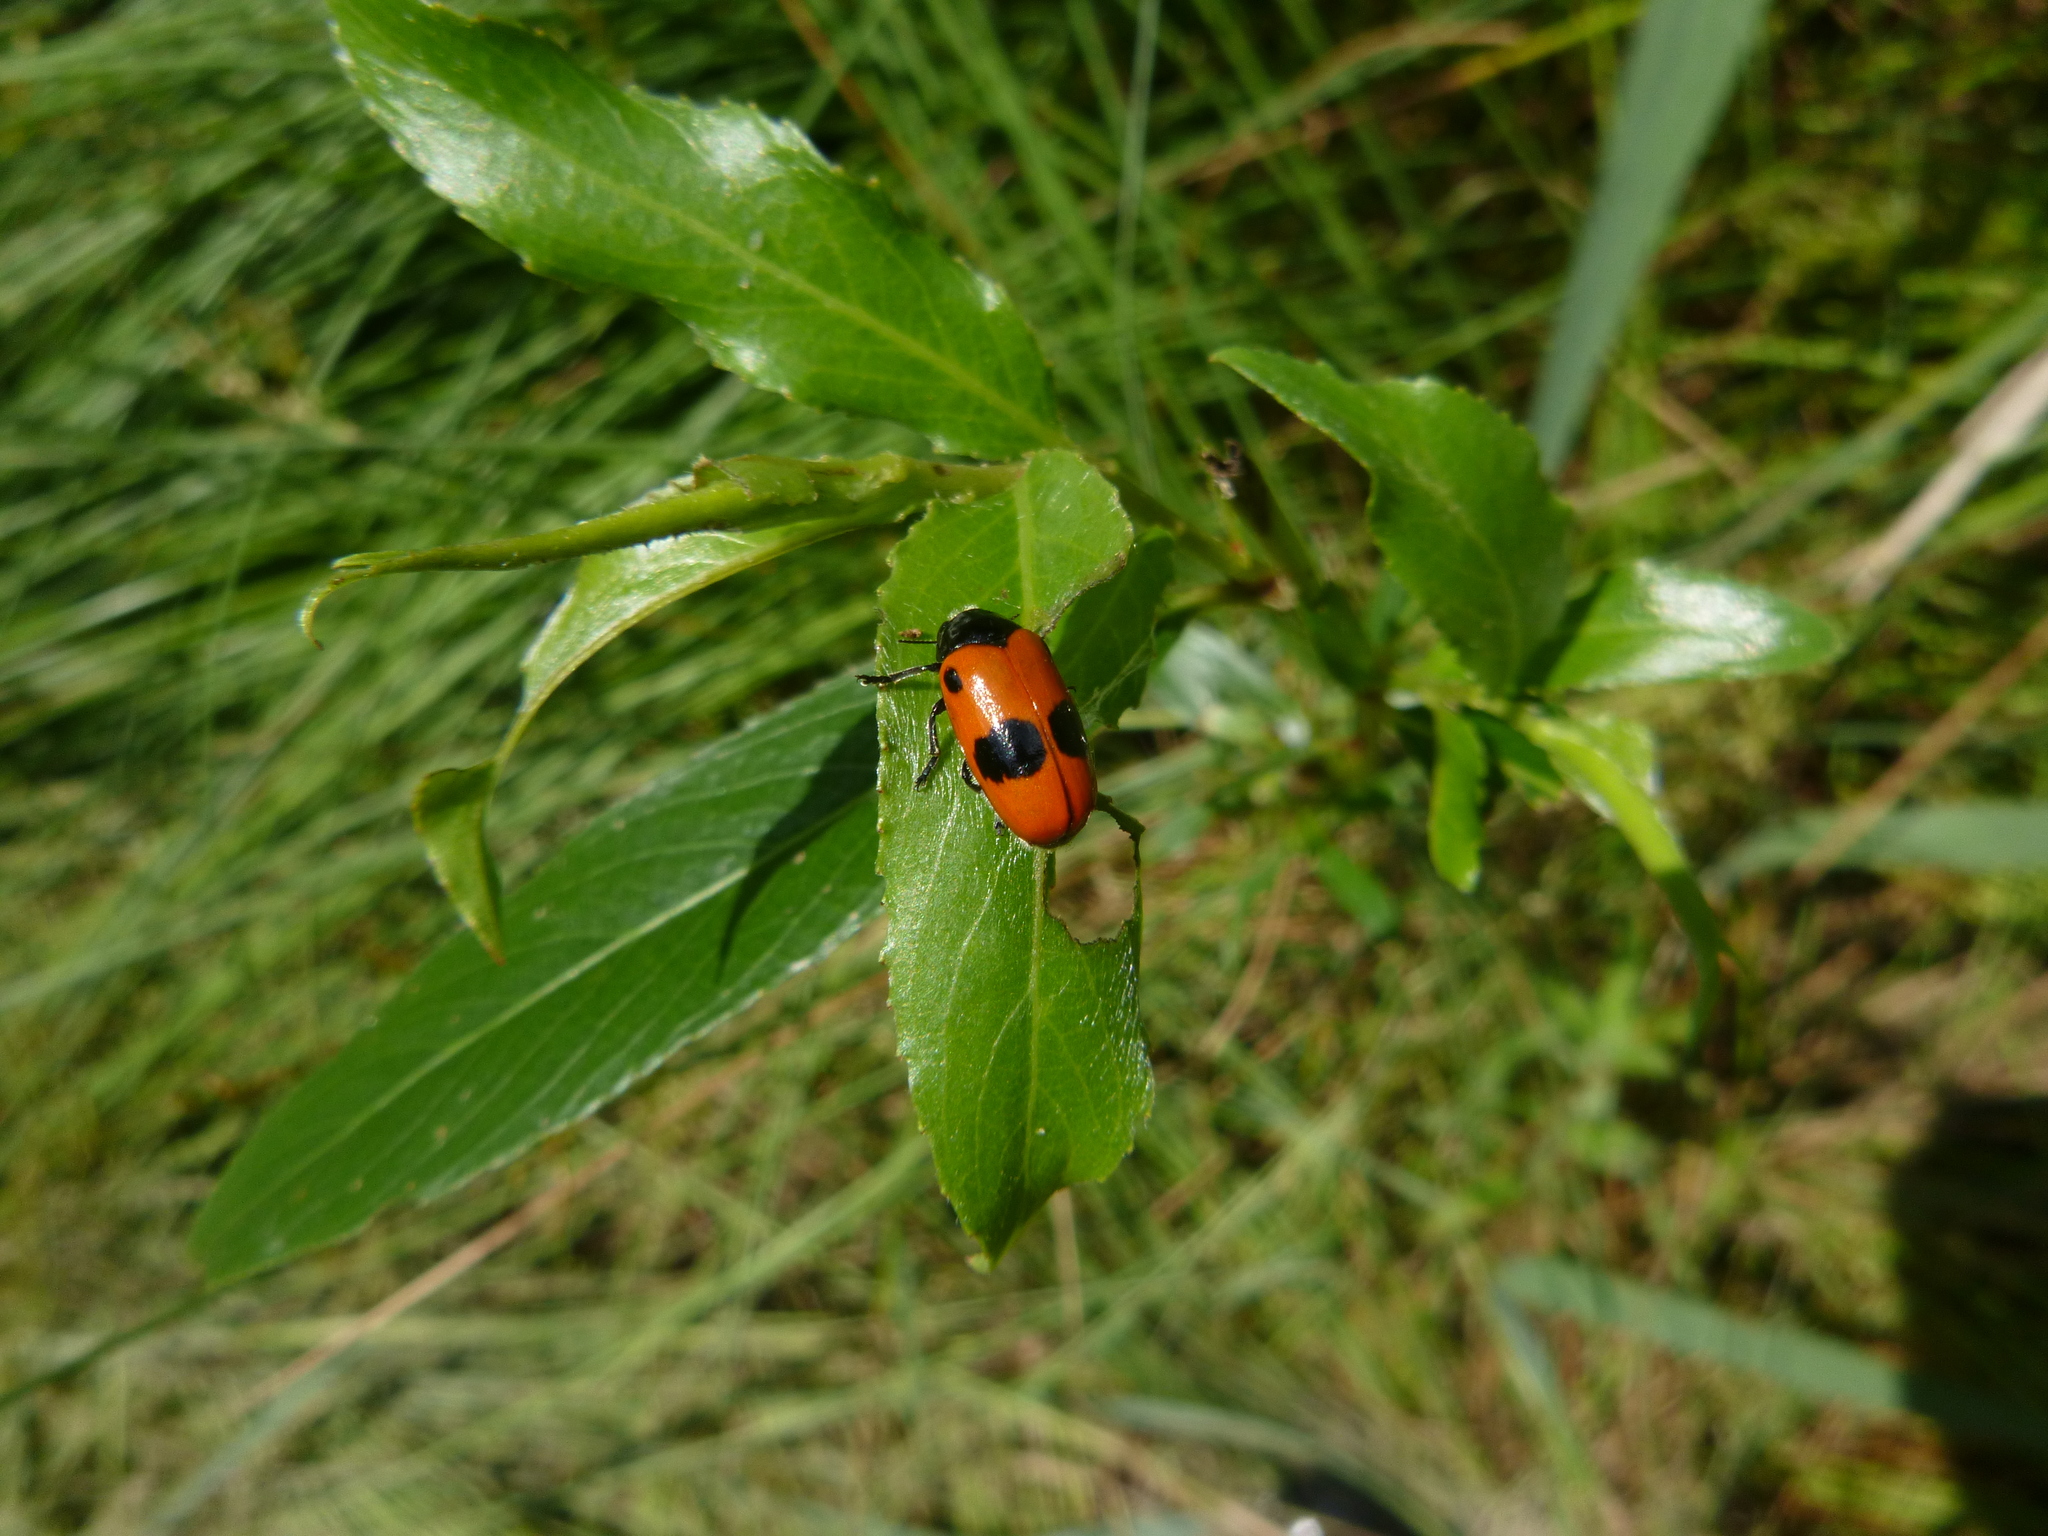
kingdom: Animalia
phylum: Arthropoda
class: Insecta
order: Coleoptera
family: Chrysomelidae
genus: Clytra
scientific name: Clytra laeviuscula
